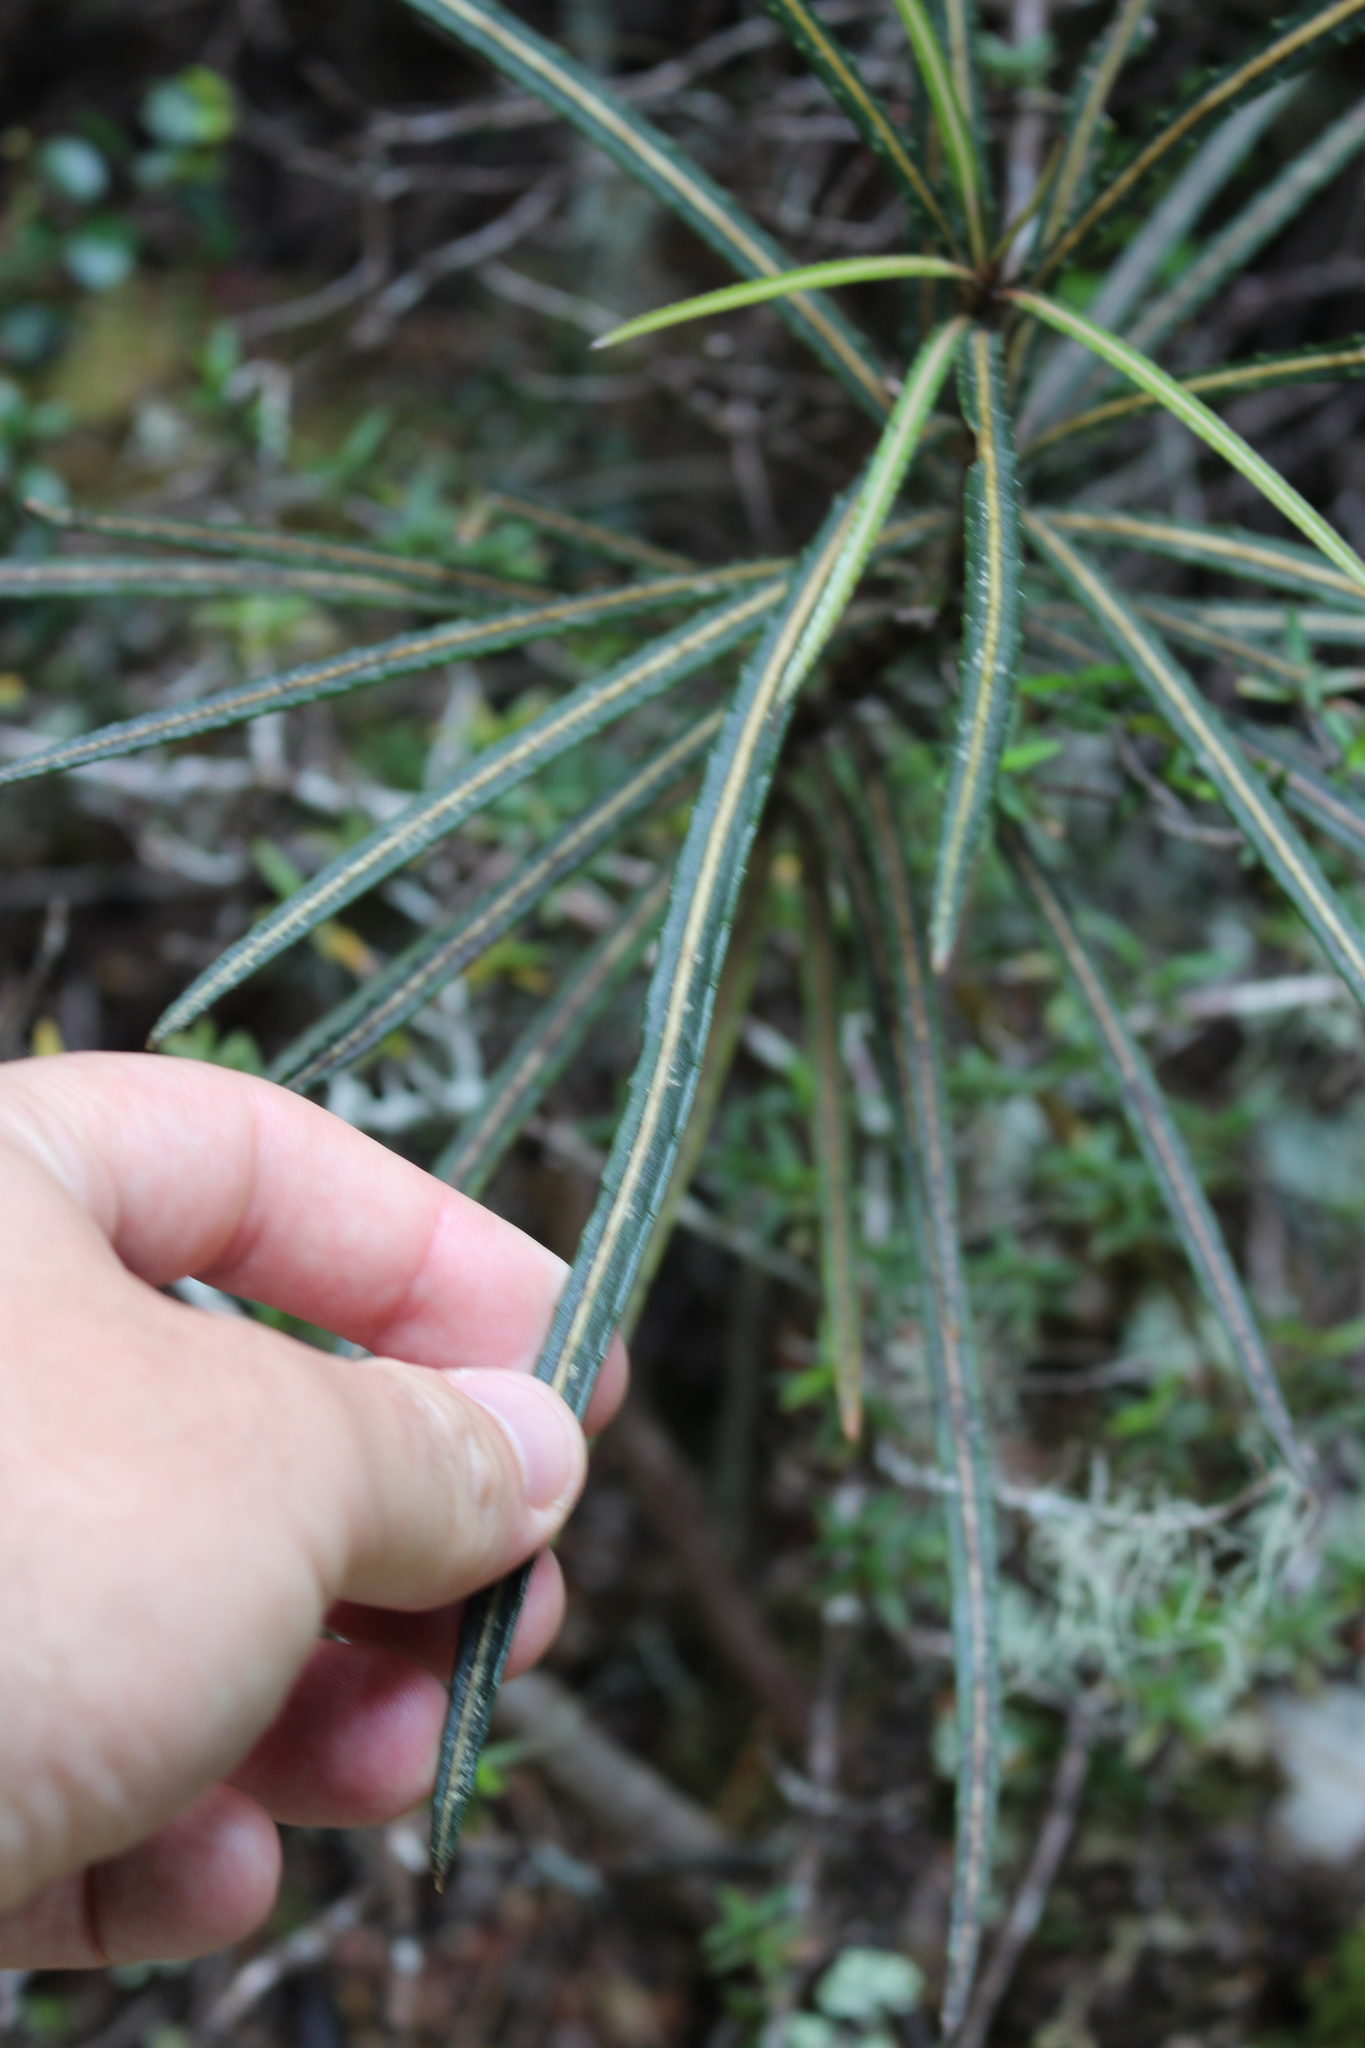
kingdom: Plantae
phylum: Tracheophyta
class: Magnoliopsida
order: Apiales
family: Araliaceae
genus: Pseudopanax
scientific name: Pseudopanax linearis
